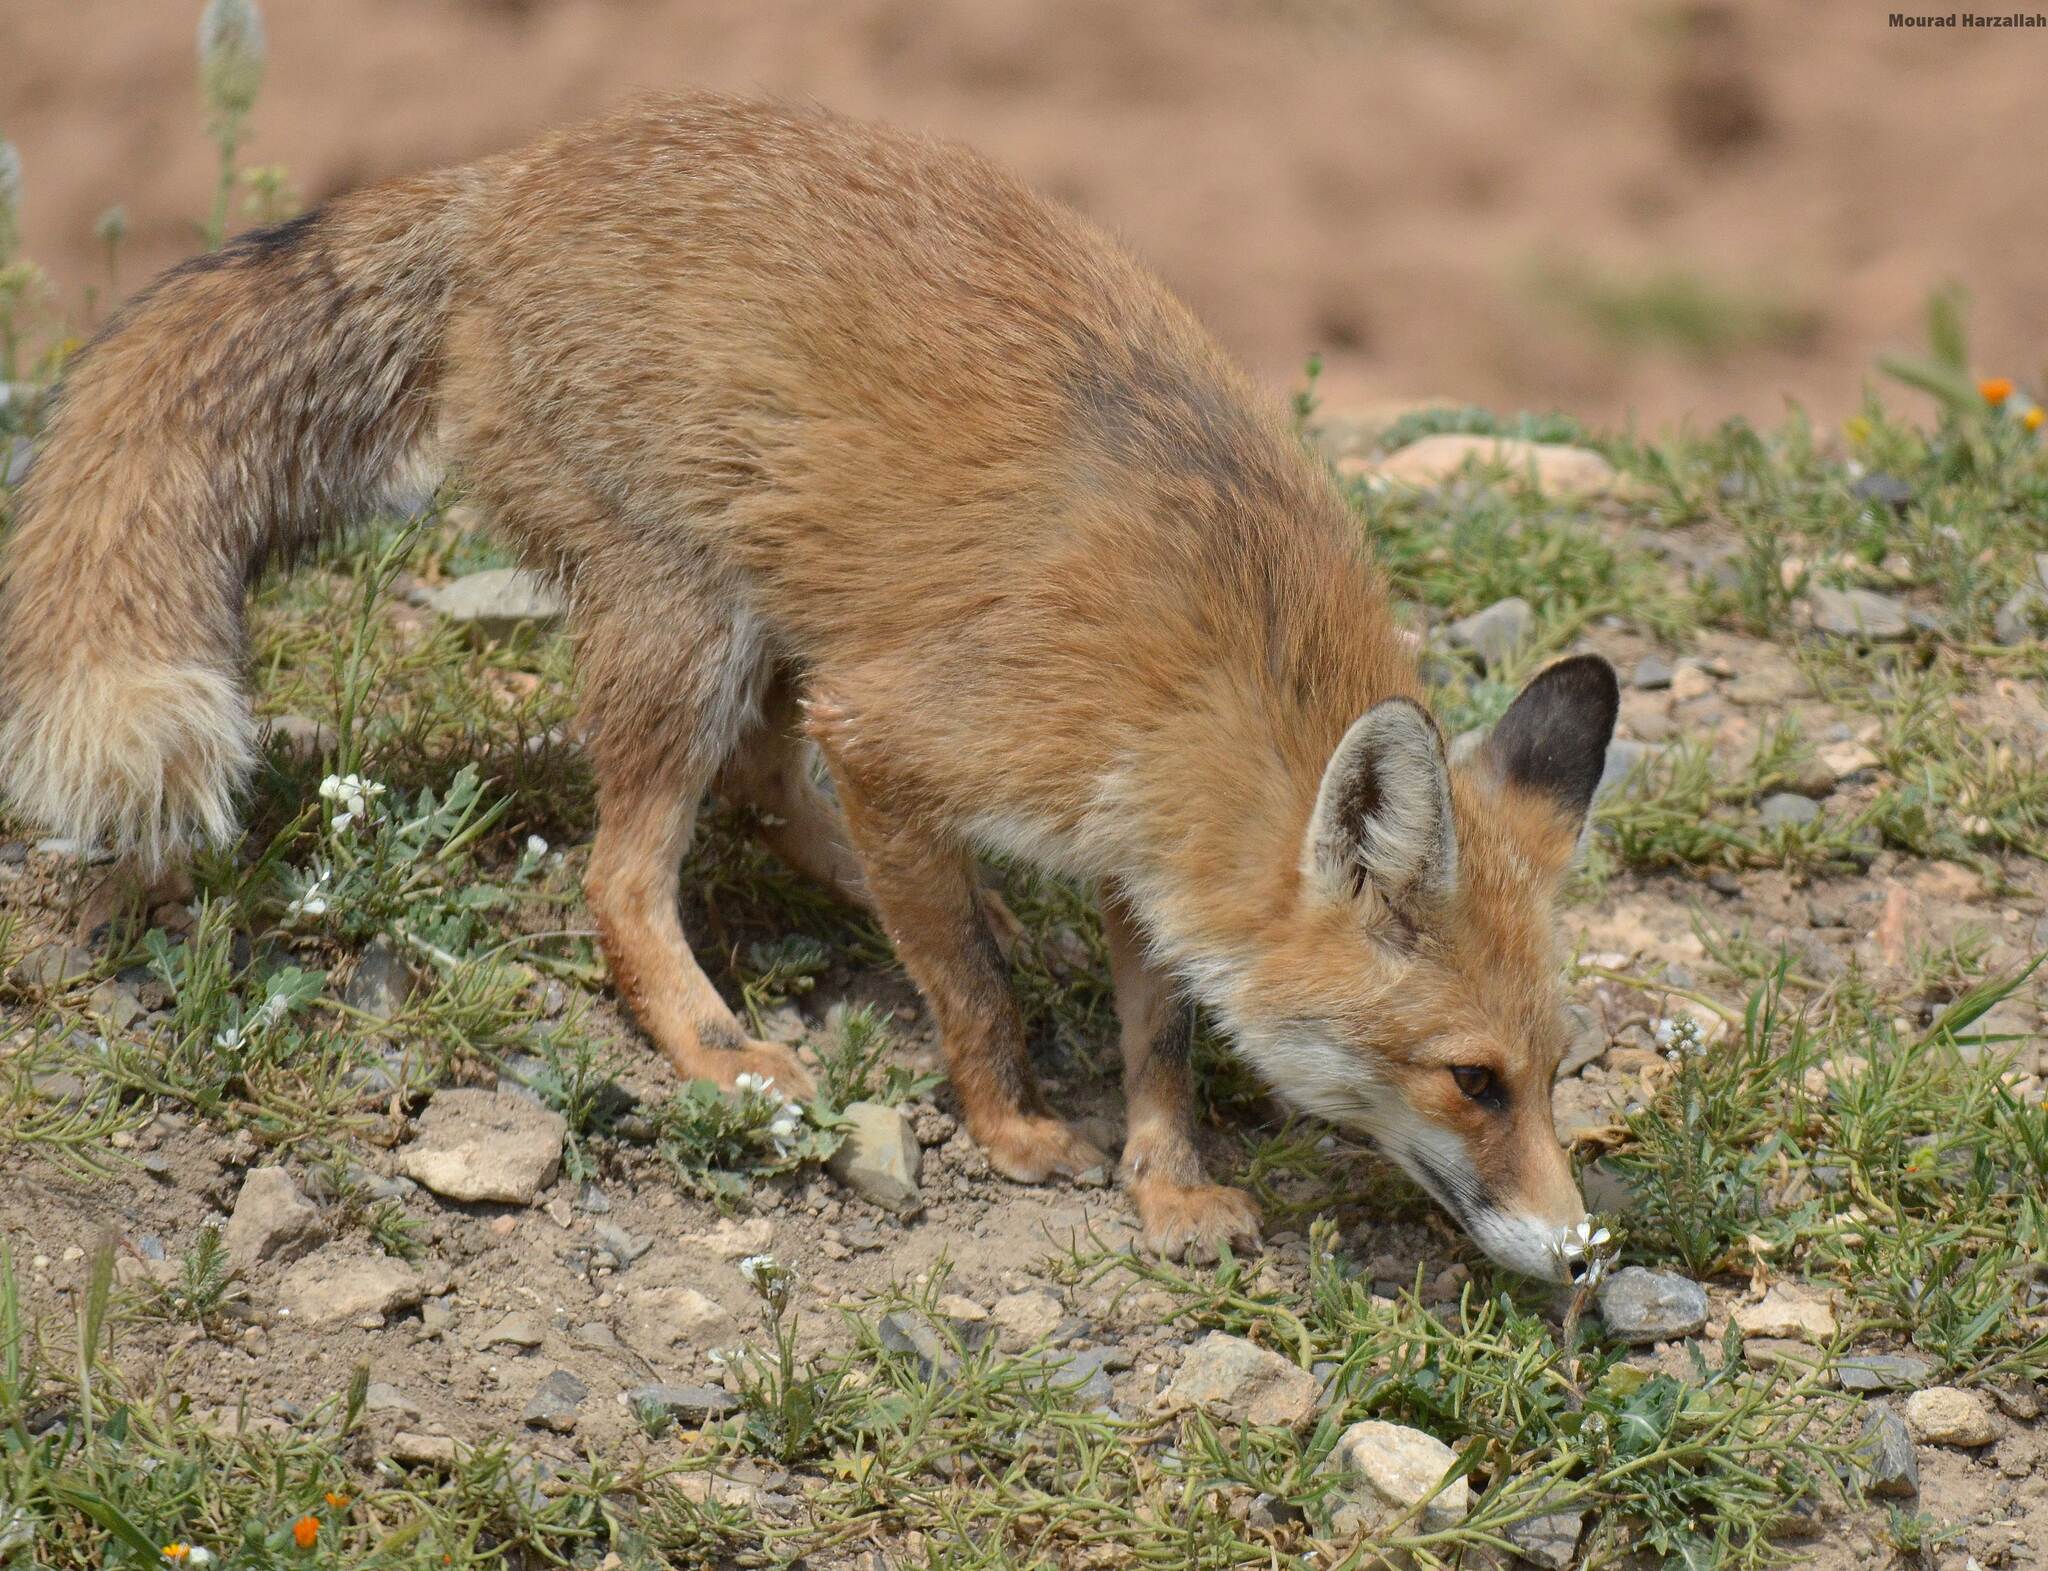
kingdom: Animalia
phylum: Chordata
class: Mammalia
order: Carnivora
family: Canidae
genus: Vulpes
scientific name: Vulpes vulpes
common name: Red fox
